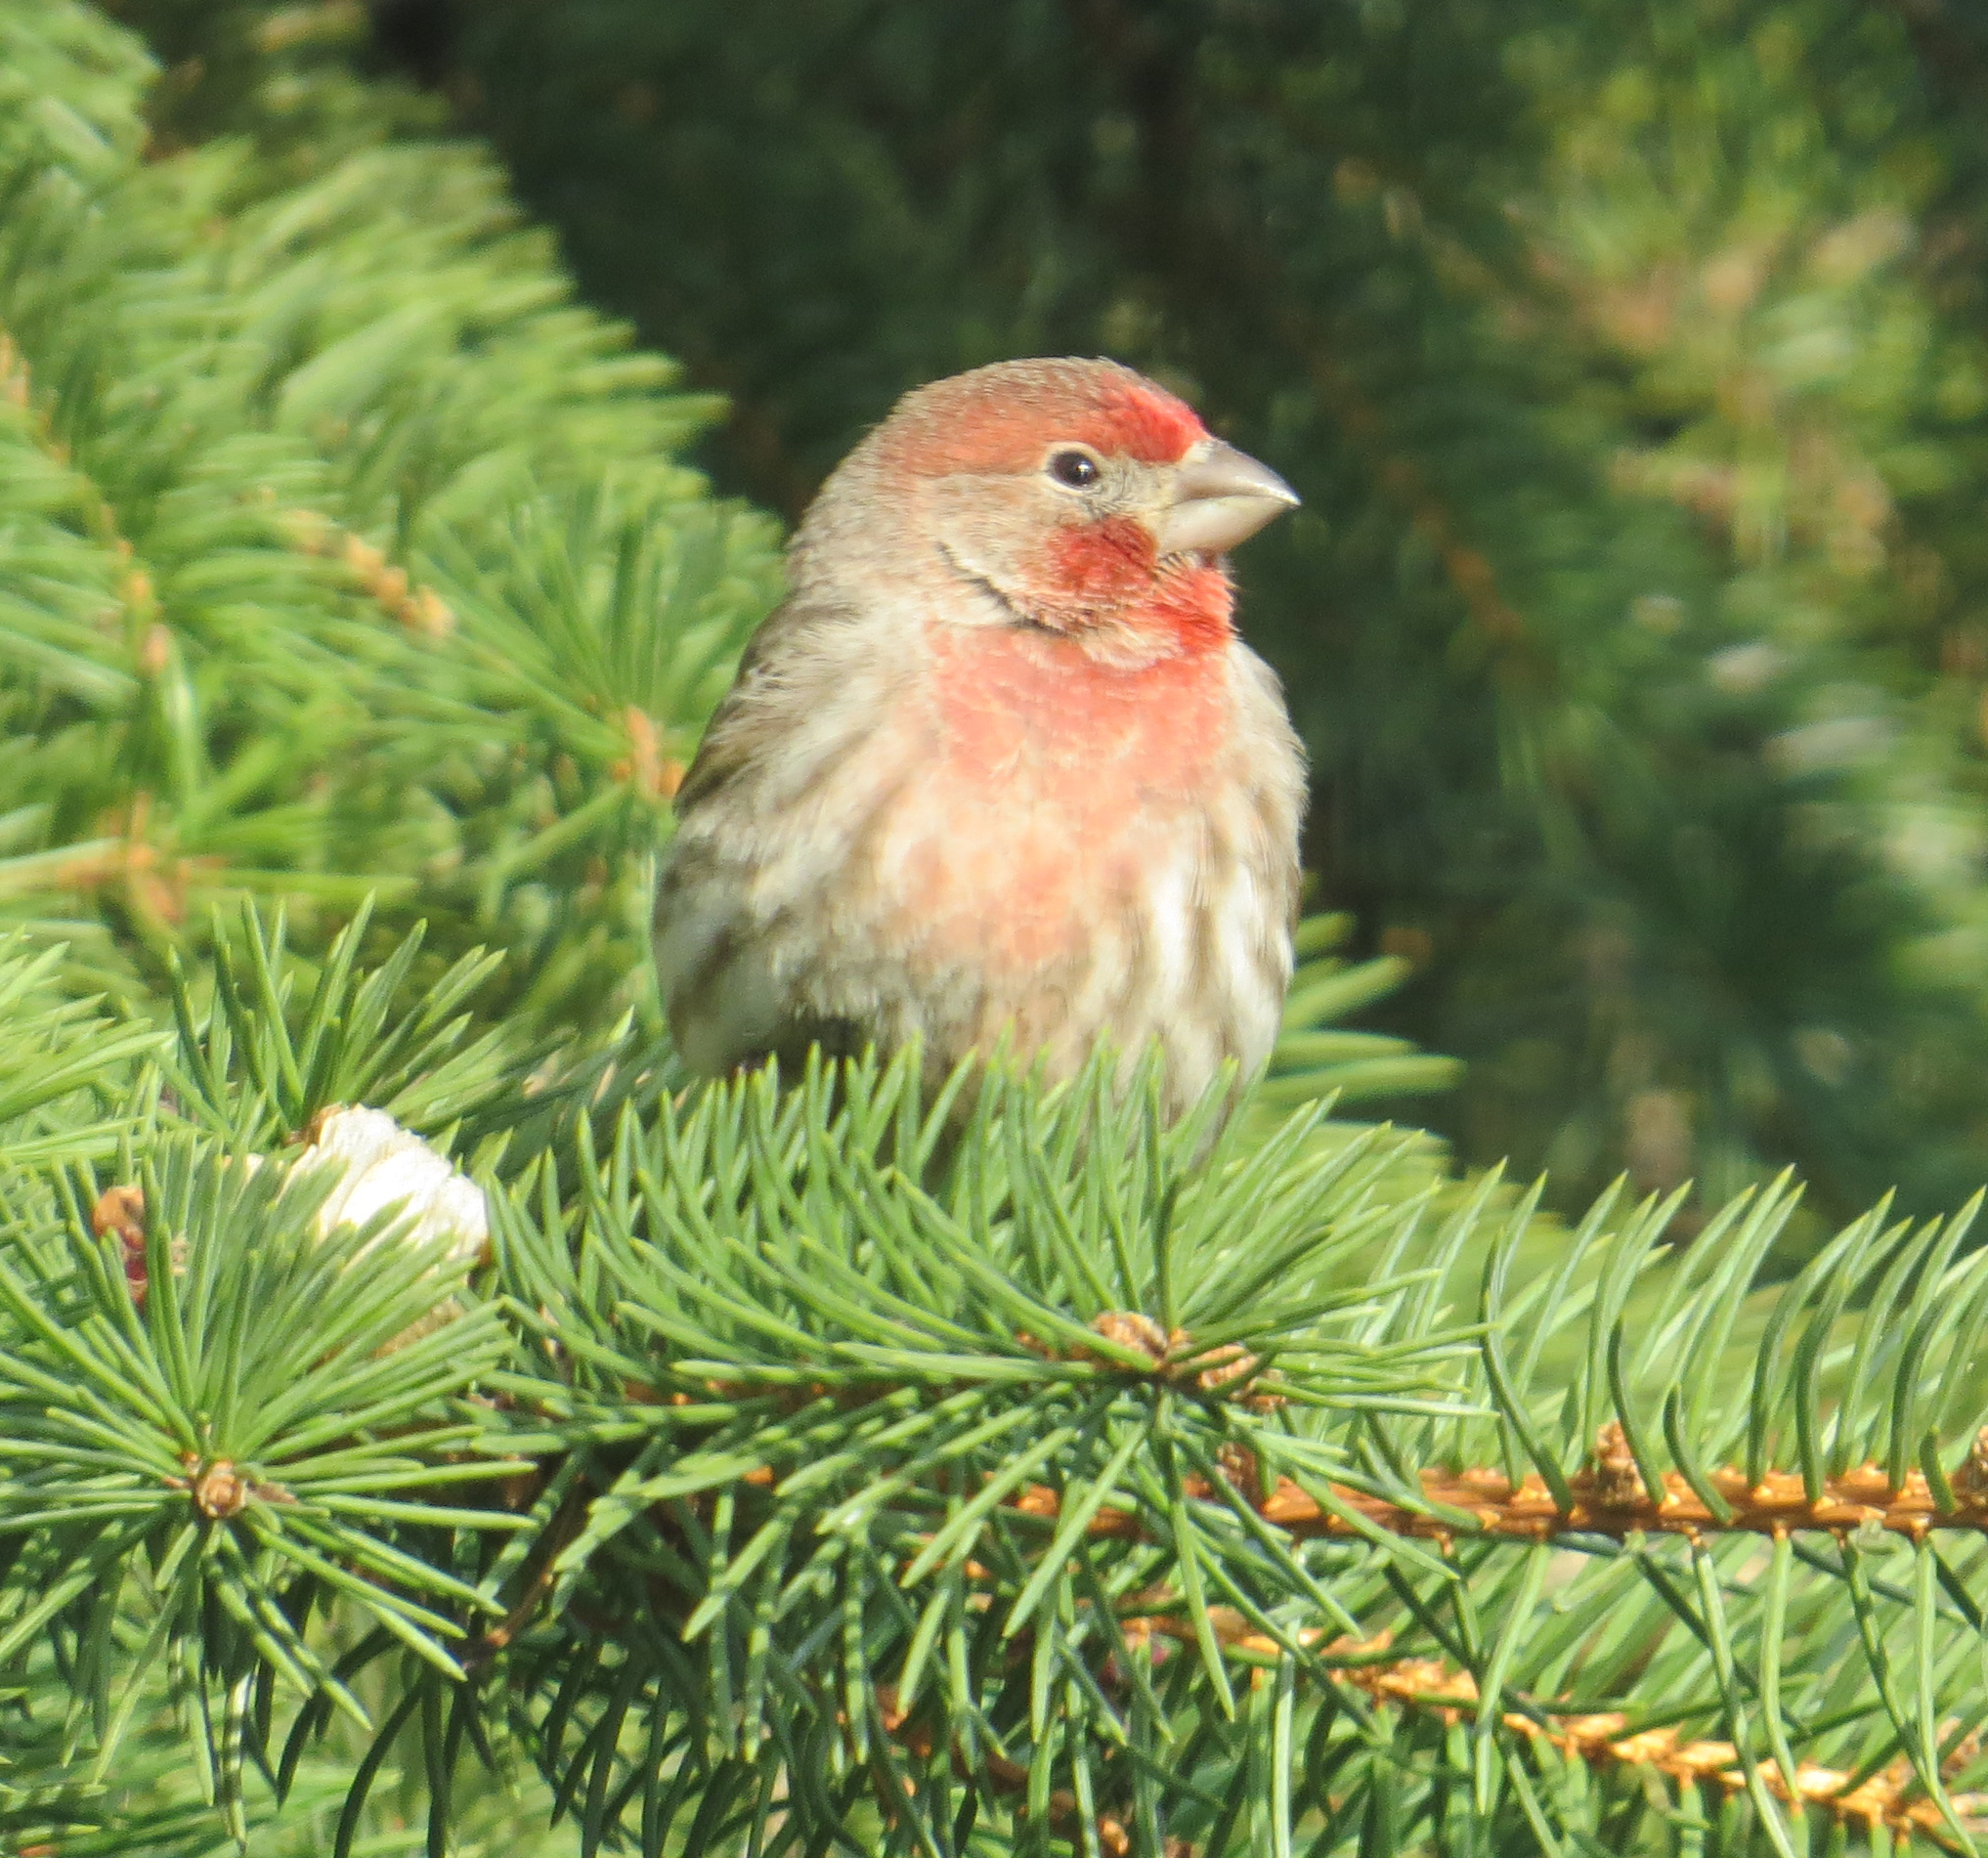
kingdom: Animalia
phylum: Chordata
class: Aves
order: Passeriformes
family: Fringillidae
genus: Haemorhous
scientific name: Haemorhous mexicanus
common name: House finch
